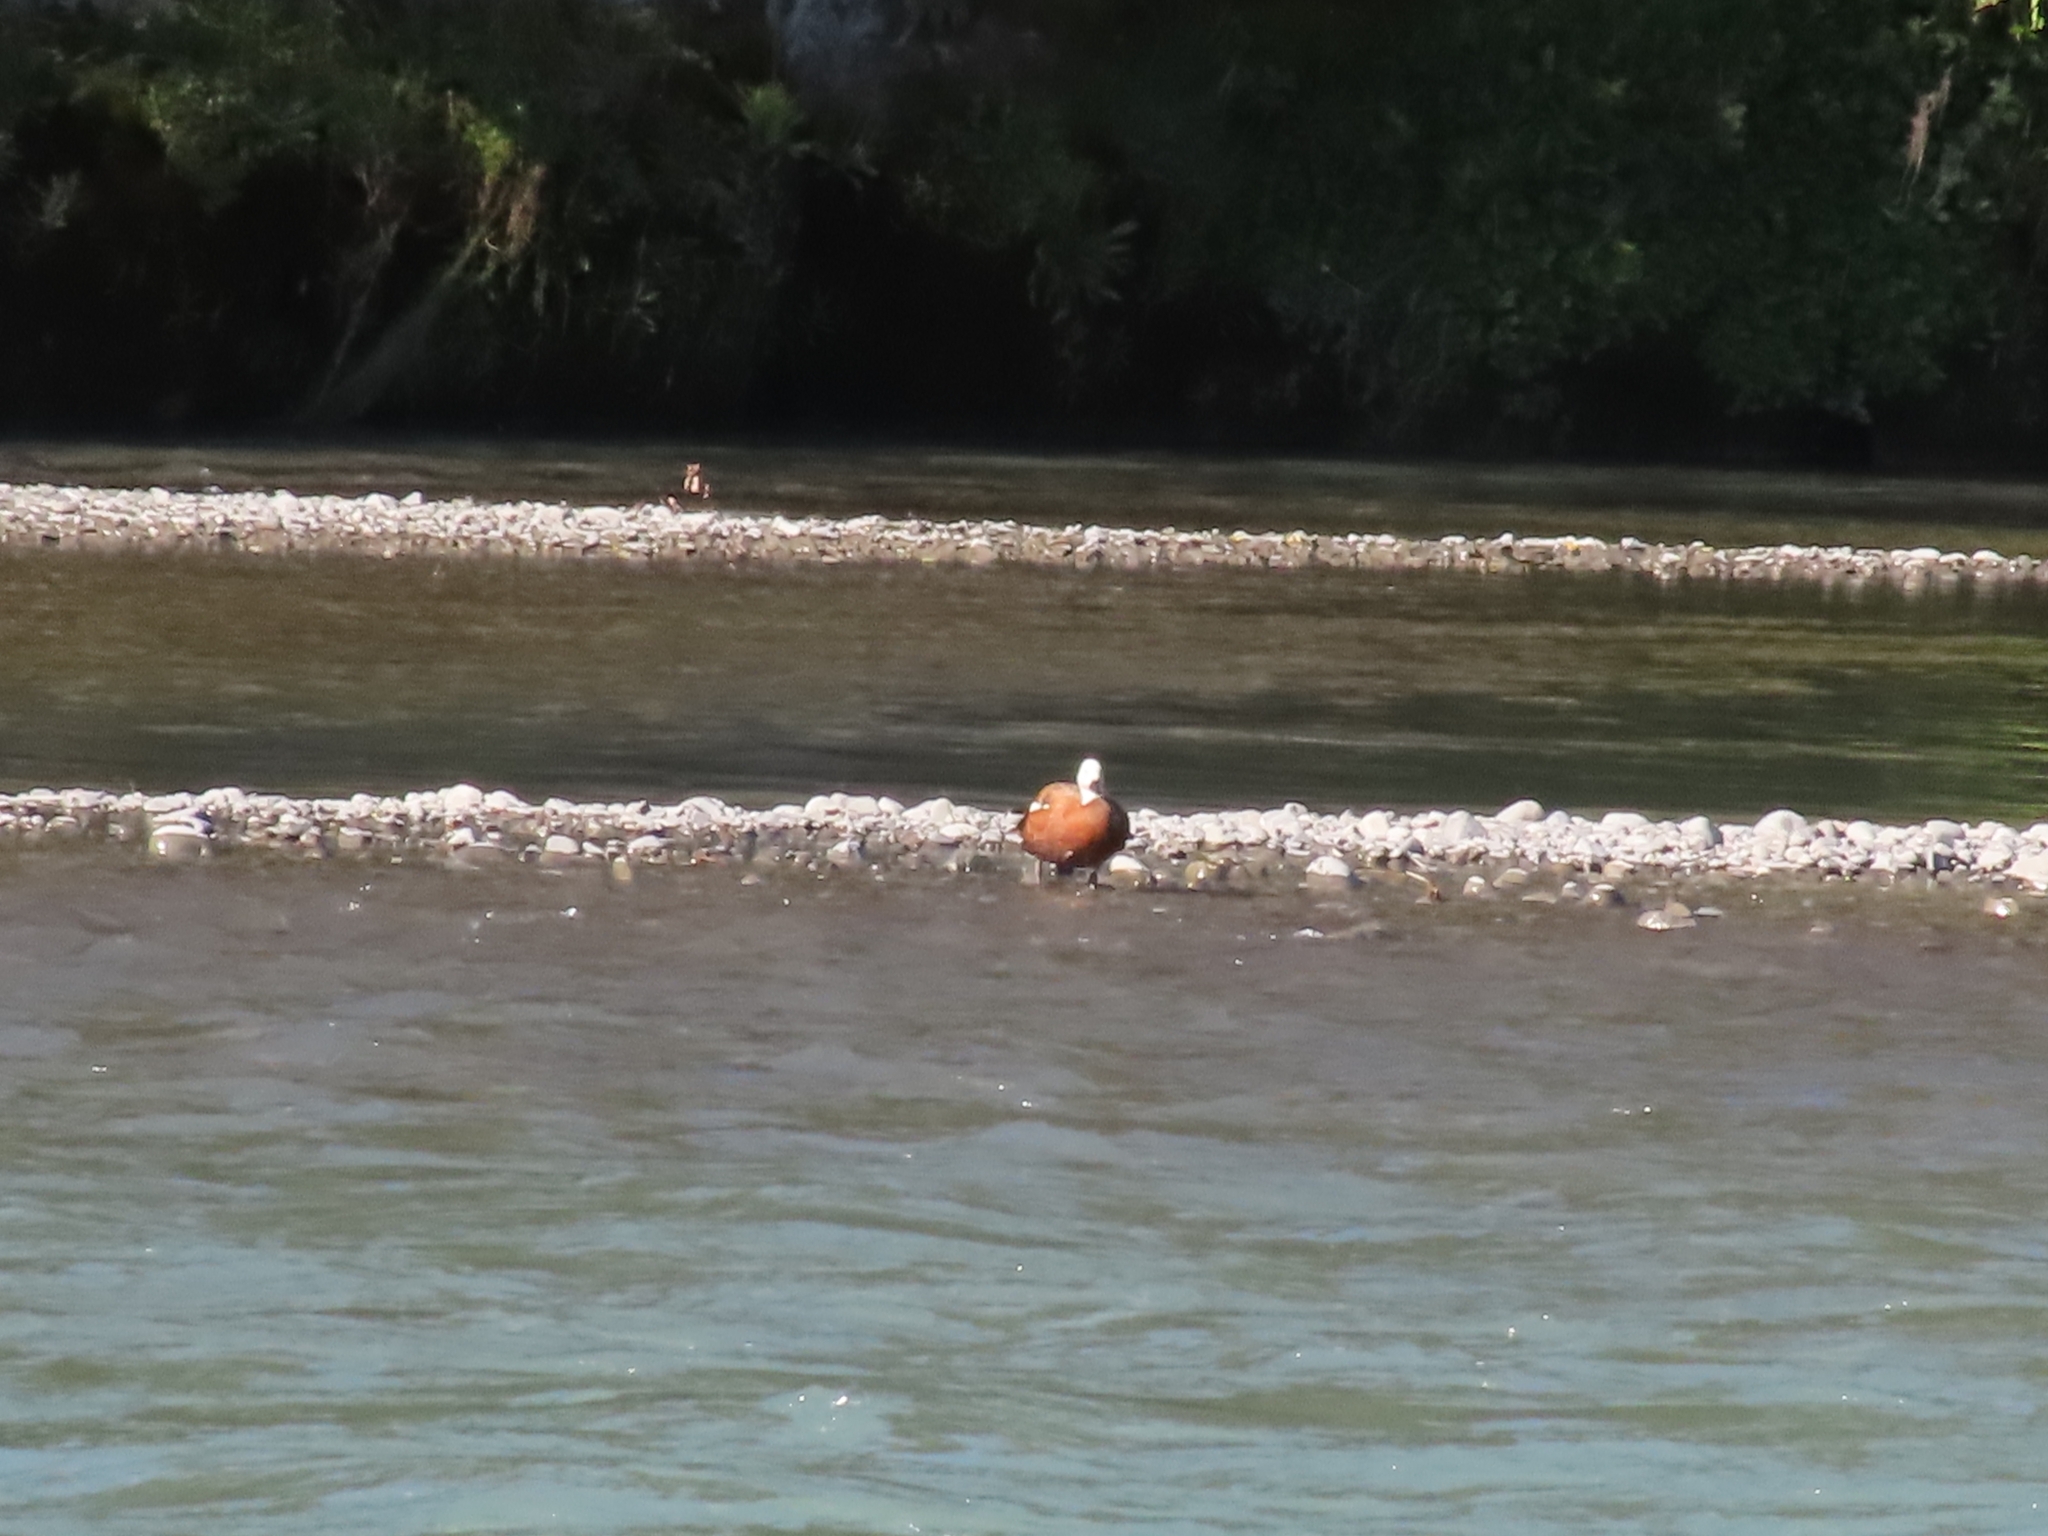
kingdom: Animalia
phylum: Chordata
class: Aves
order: Anseriformes
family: Anatidae
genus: Tadorna
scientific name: Tadorna variegata
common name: Paradise shelduck
